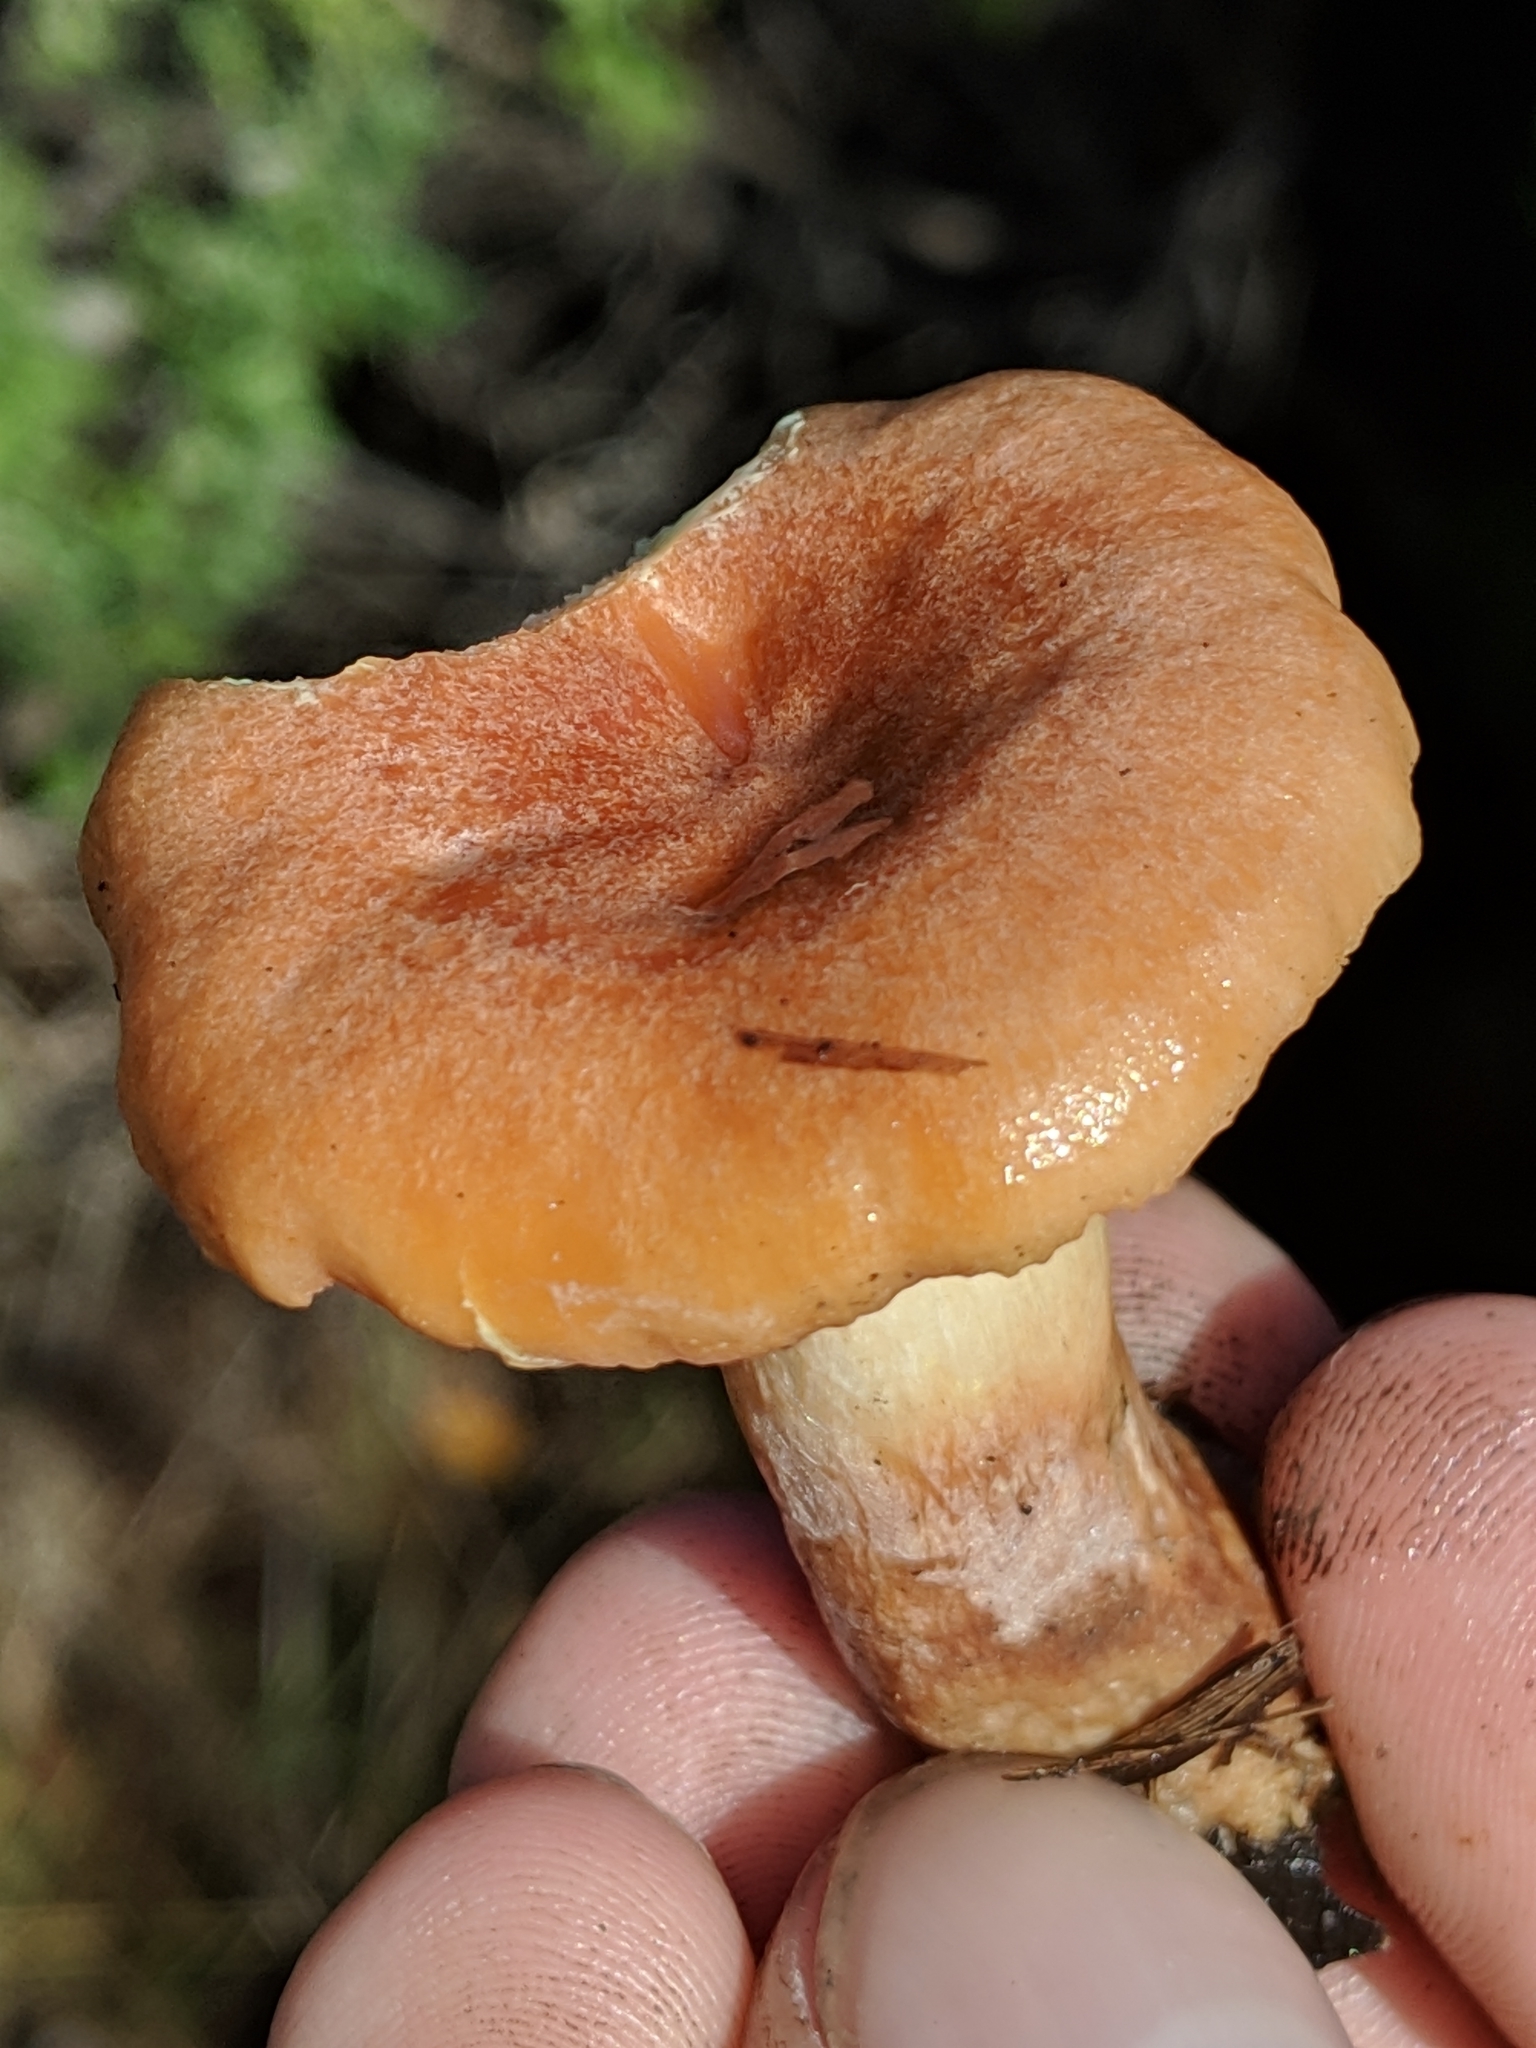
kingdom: Fungi
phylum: Basidiomycota
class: Agaricomycetes
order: Russulales
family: Russulaceae
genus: Lactarius
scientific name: Lactarius xanthogalactus
